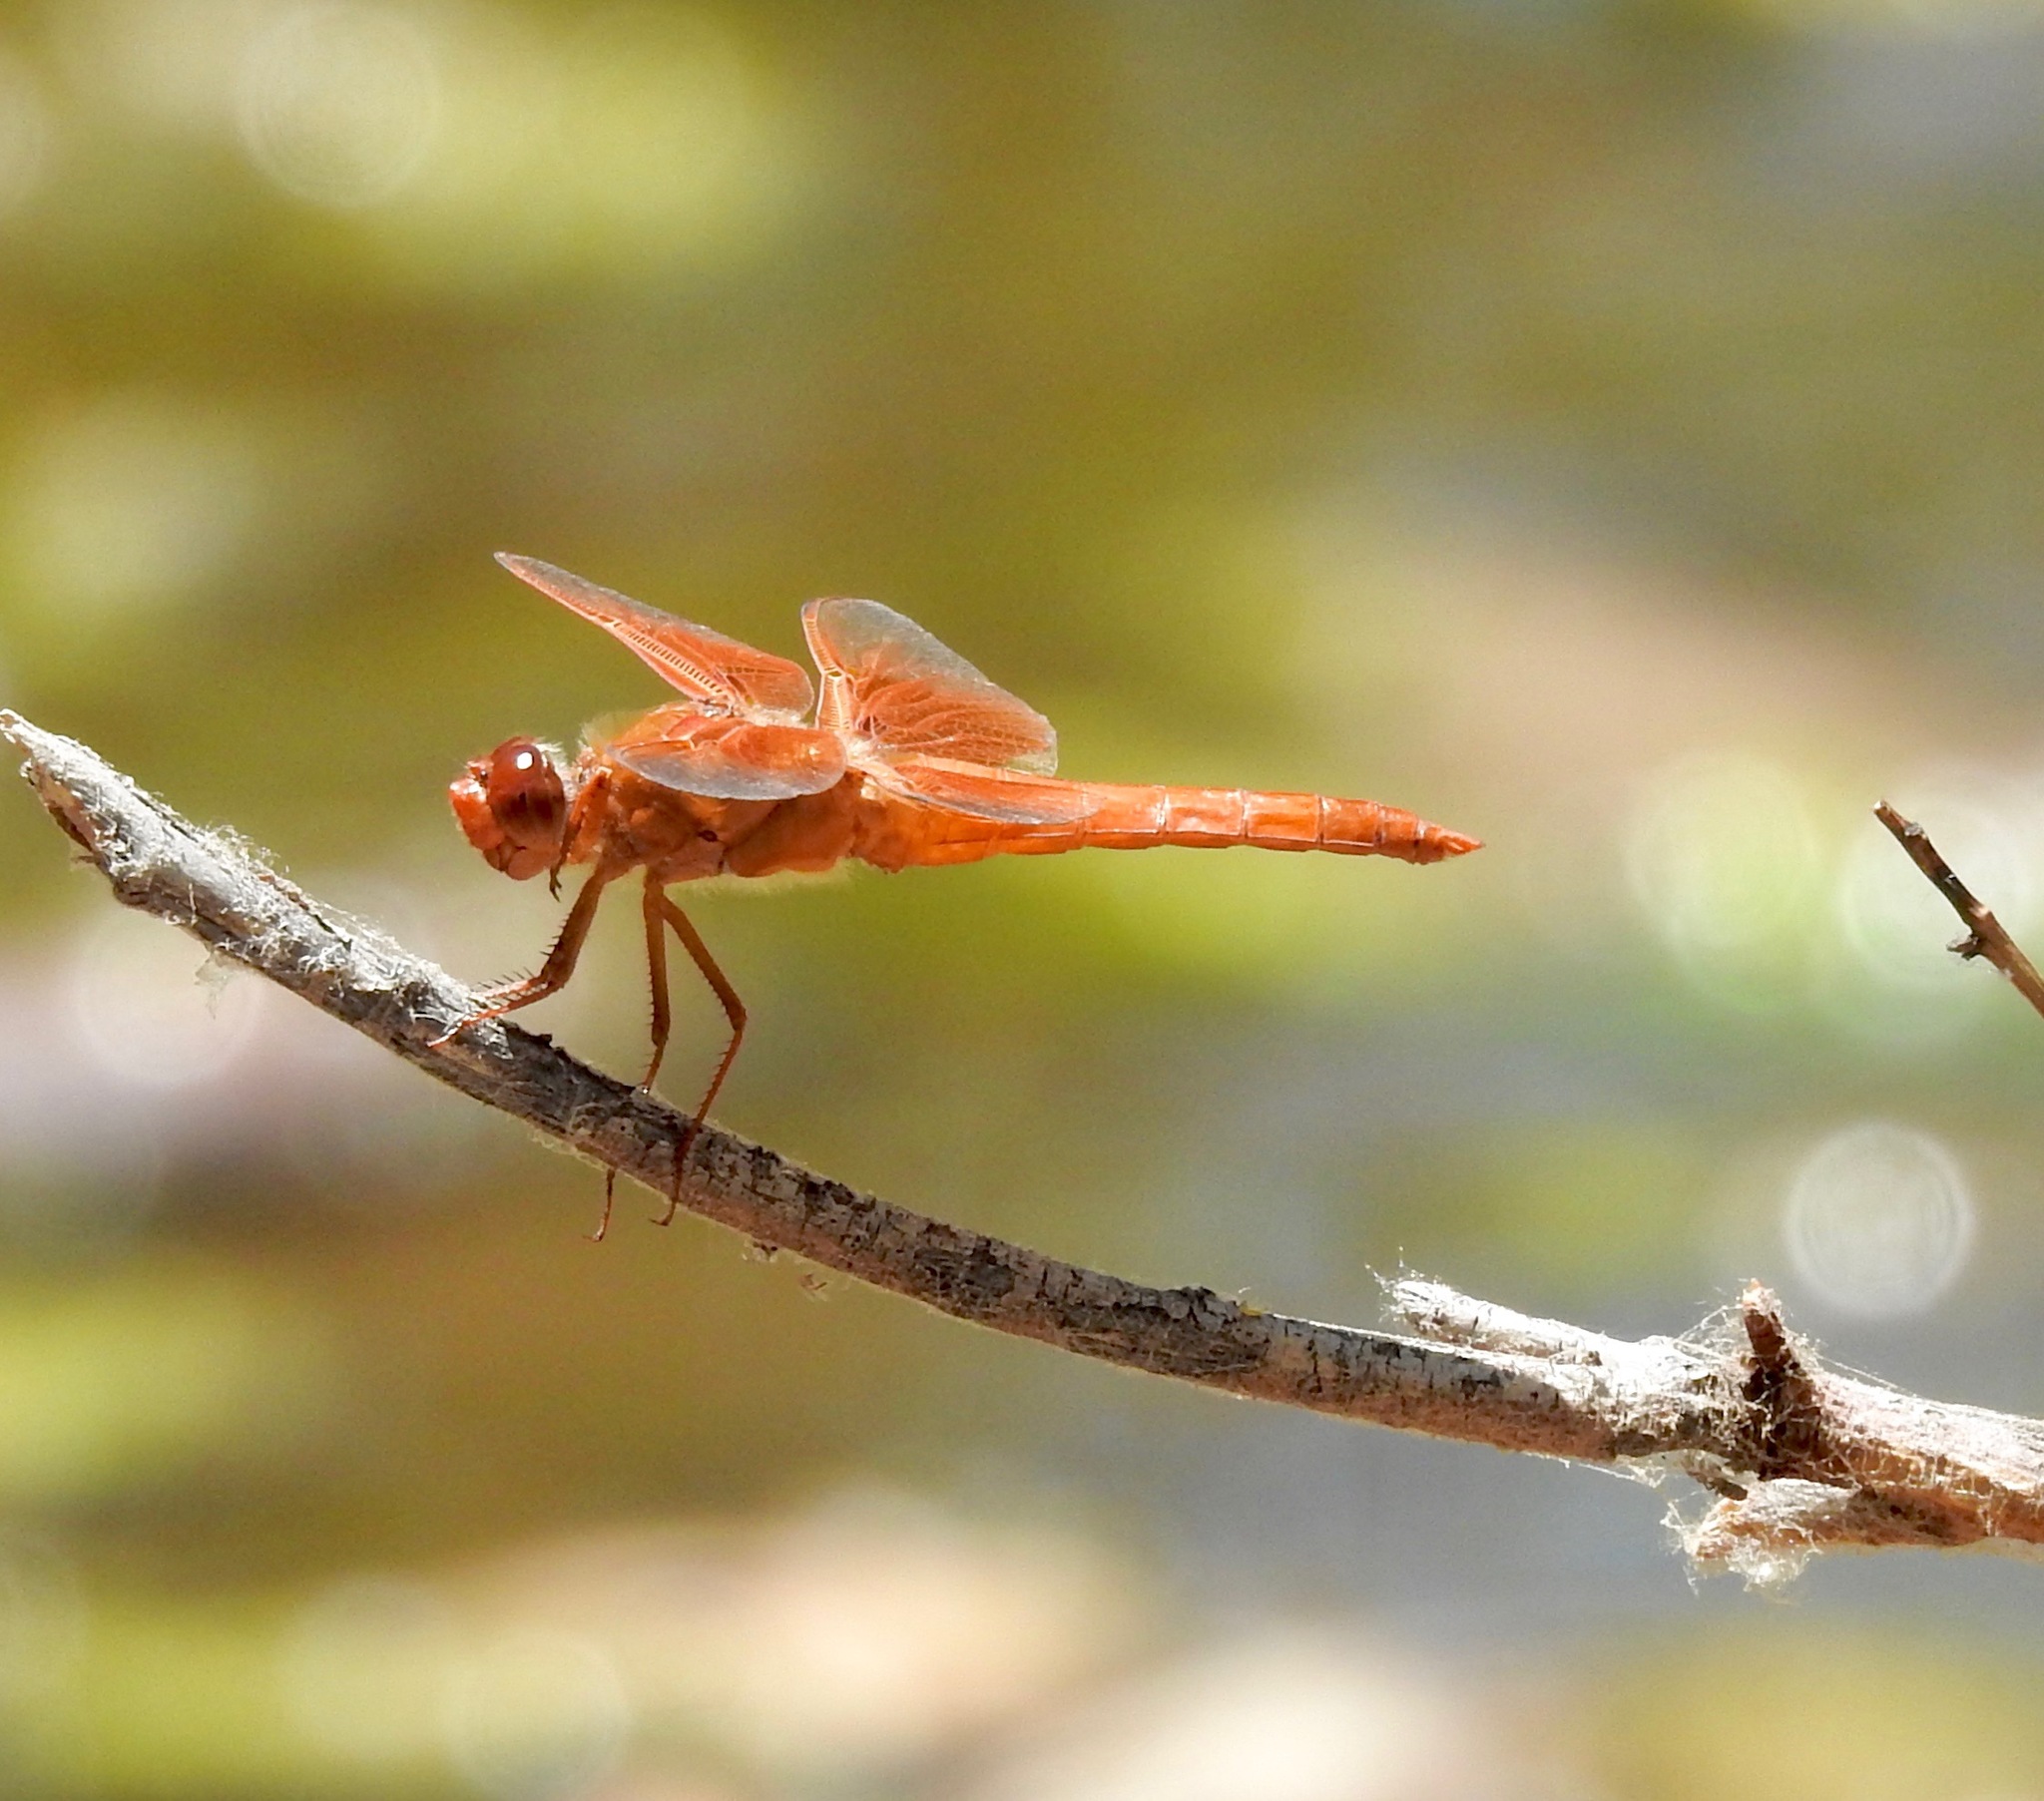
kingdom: Animalia
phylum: Arthropoda
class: Insecta
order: Odonata
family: Libellulidae
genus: Libellula
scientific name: Libellula saturata
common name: Flame skimmer
